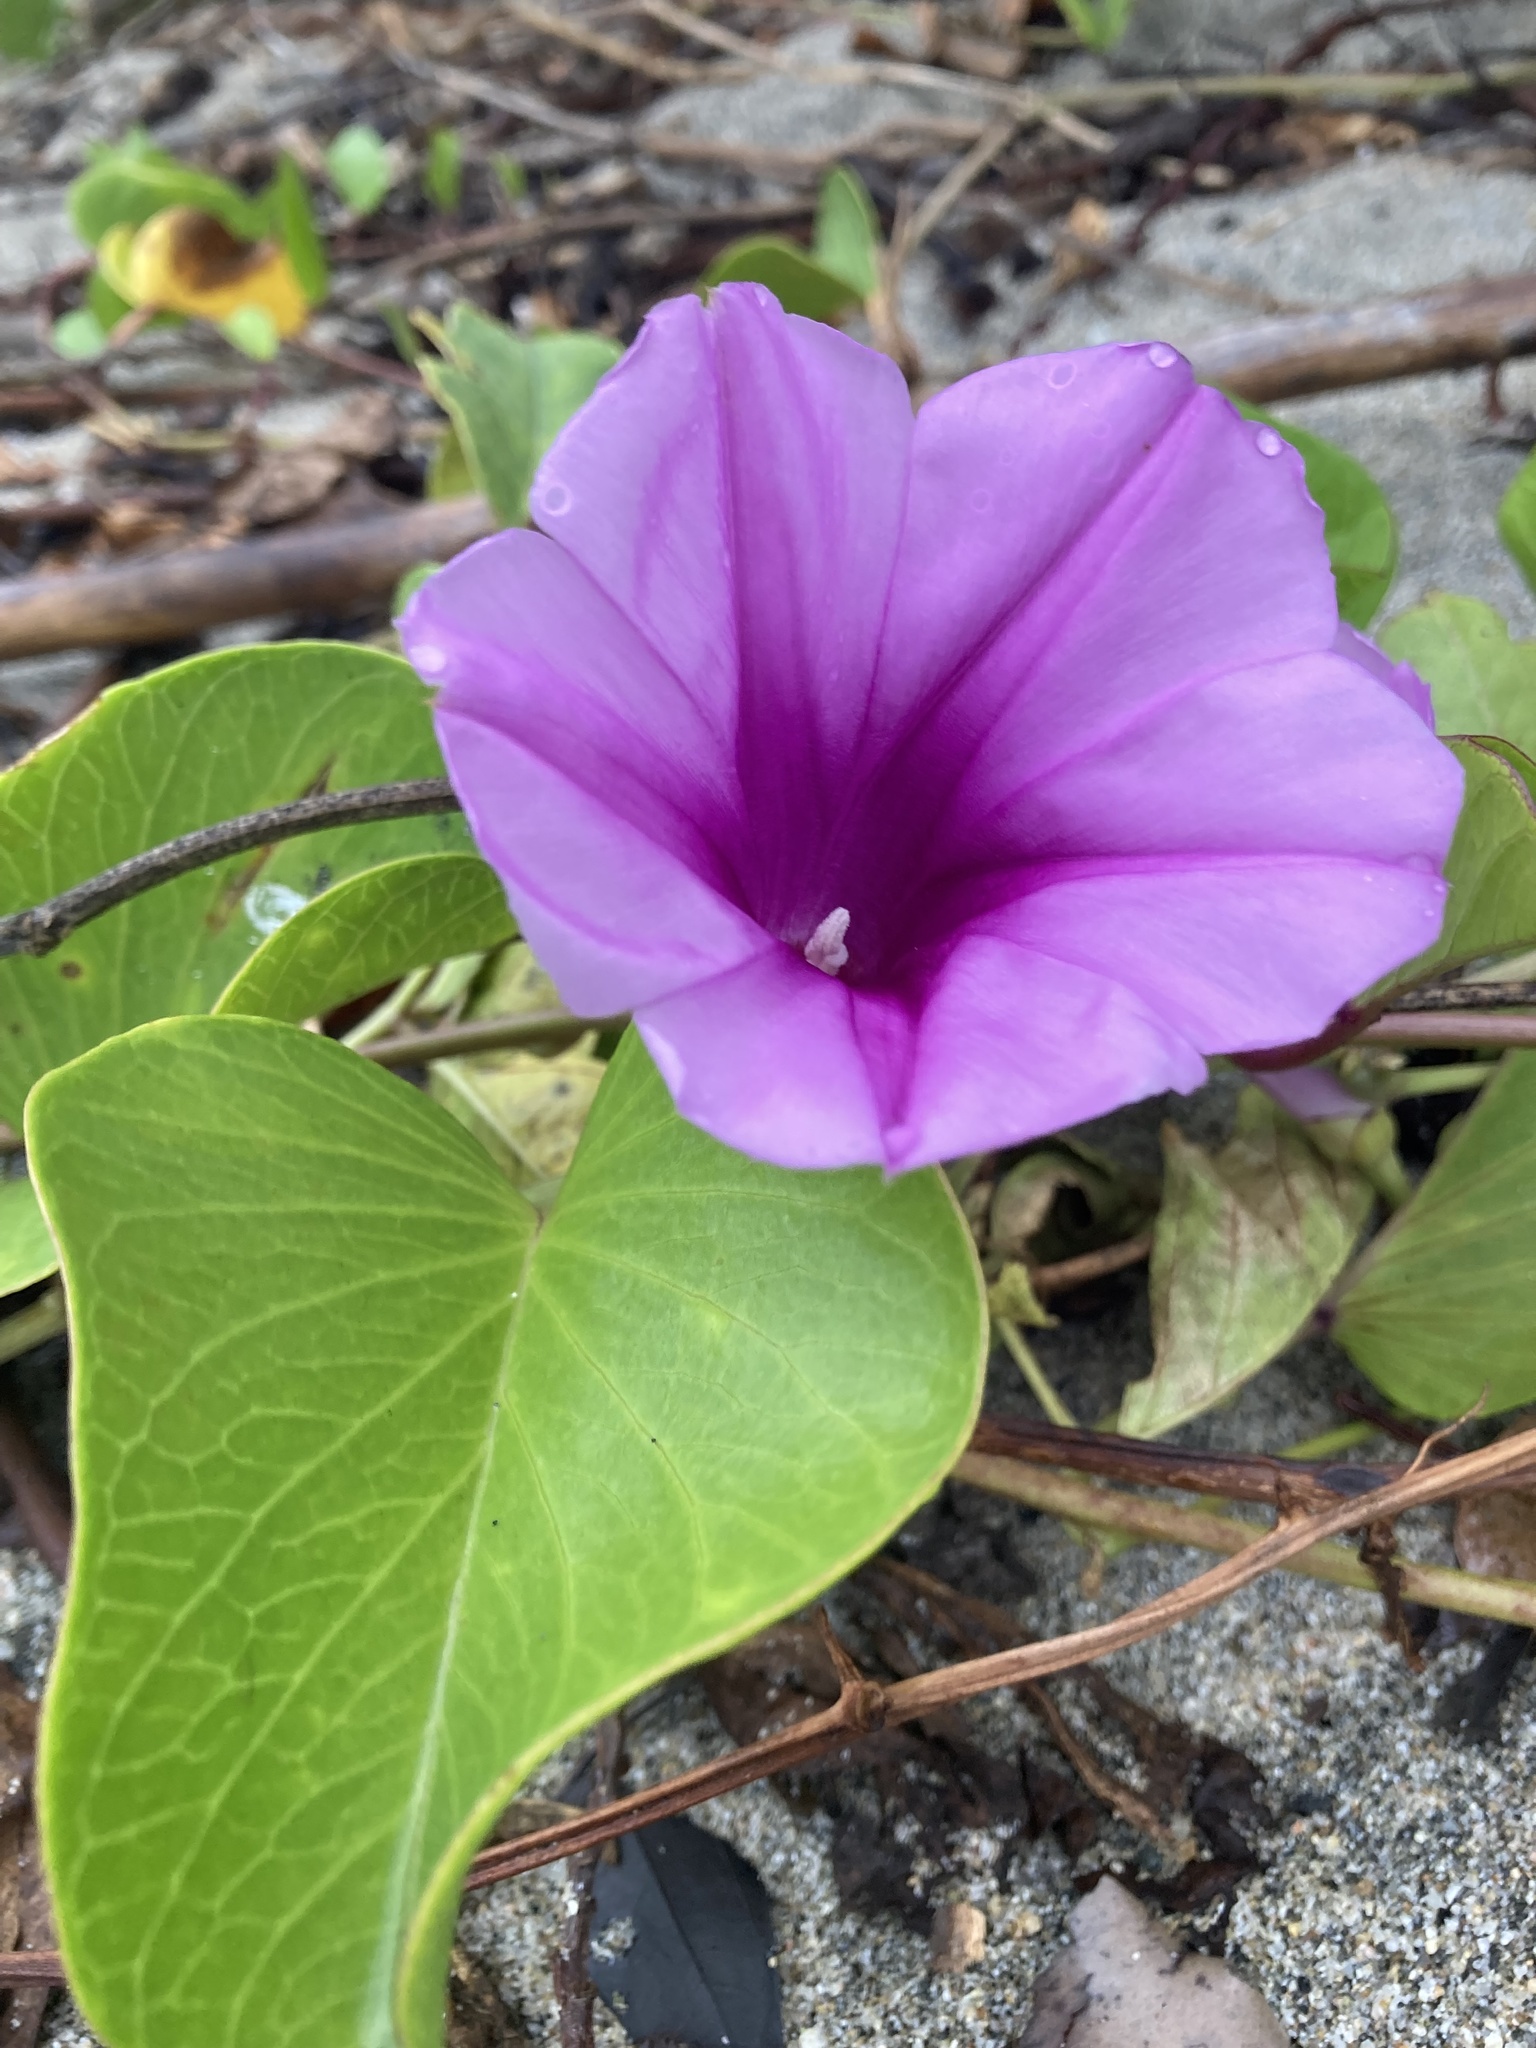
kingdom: Plantae
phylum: Tracheophyta
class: Magnoliopsida
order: Solanales
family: Convolvulaceae
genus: Ipomoea
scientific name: Ipomoea pes-caprae
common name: Beach morning glory
